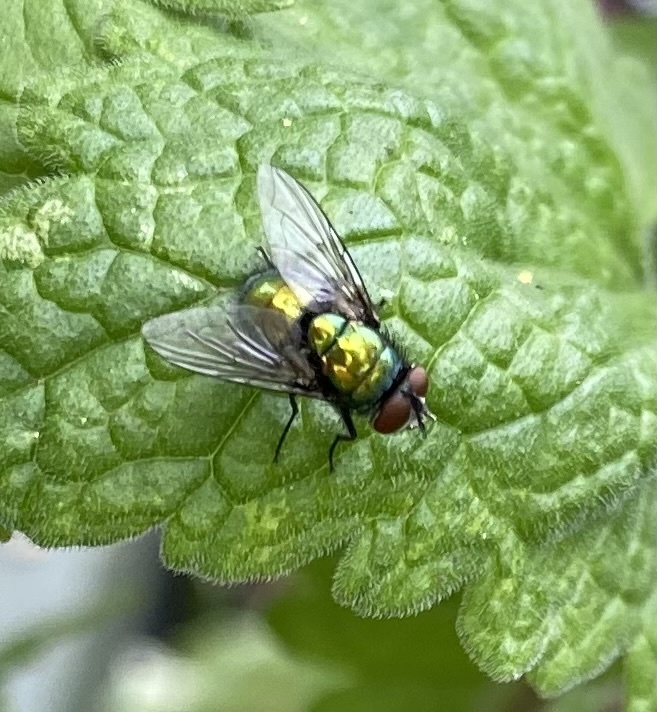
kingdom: Animalia
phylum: Arthropoda
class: Insecta
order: Diptera
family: Calliphoridae
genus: Lucilia
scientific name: Lucilia
